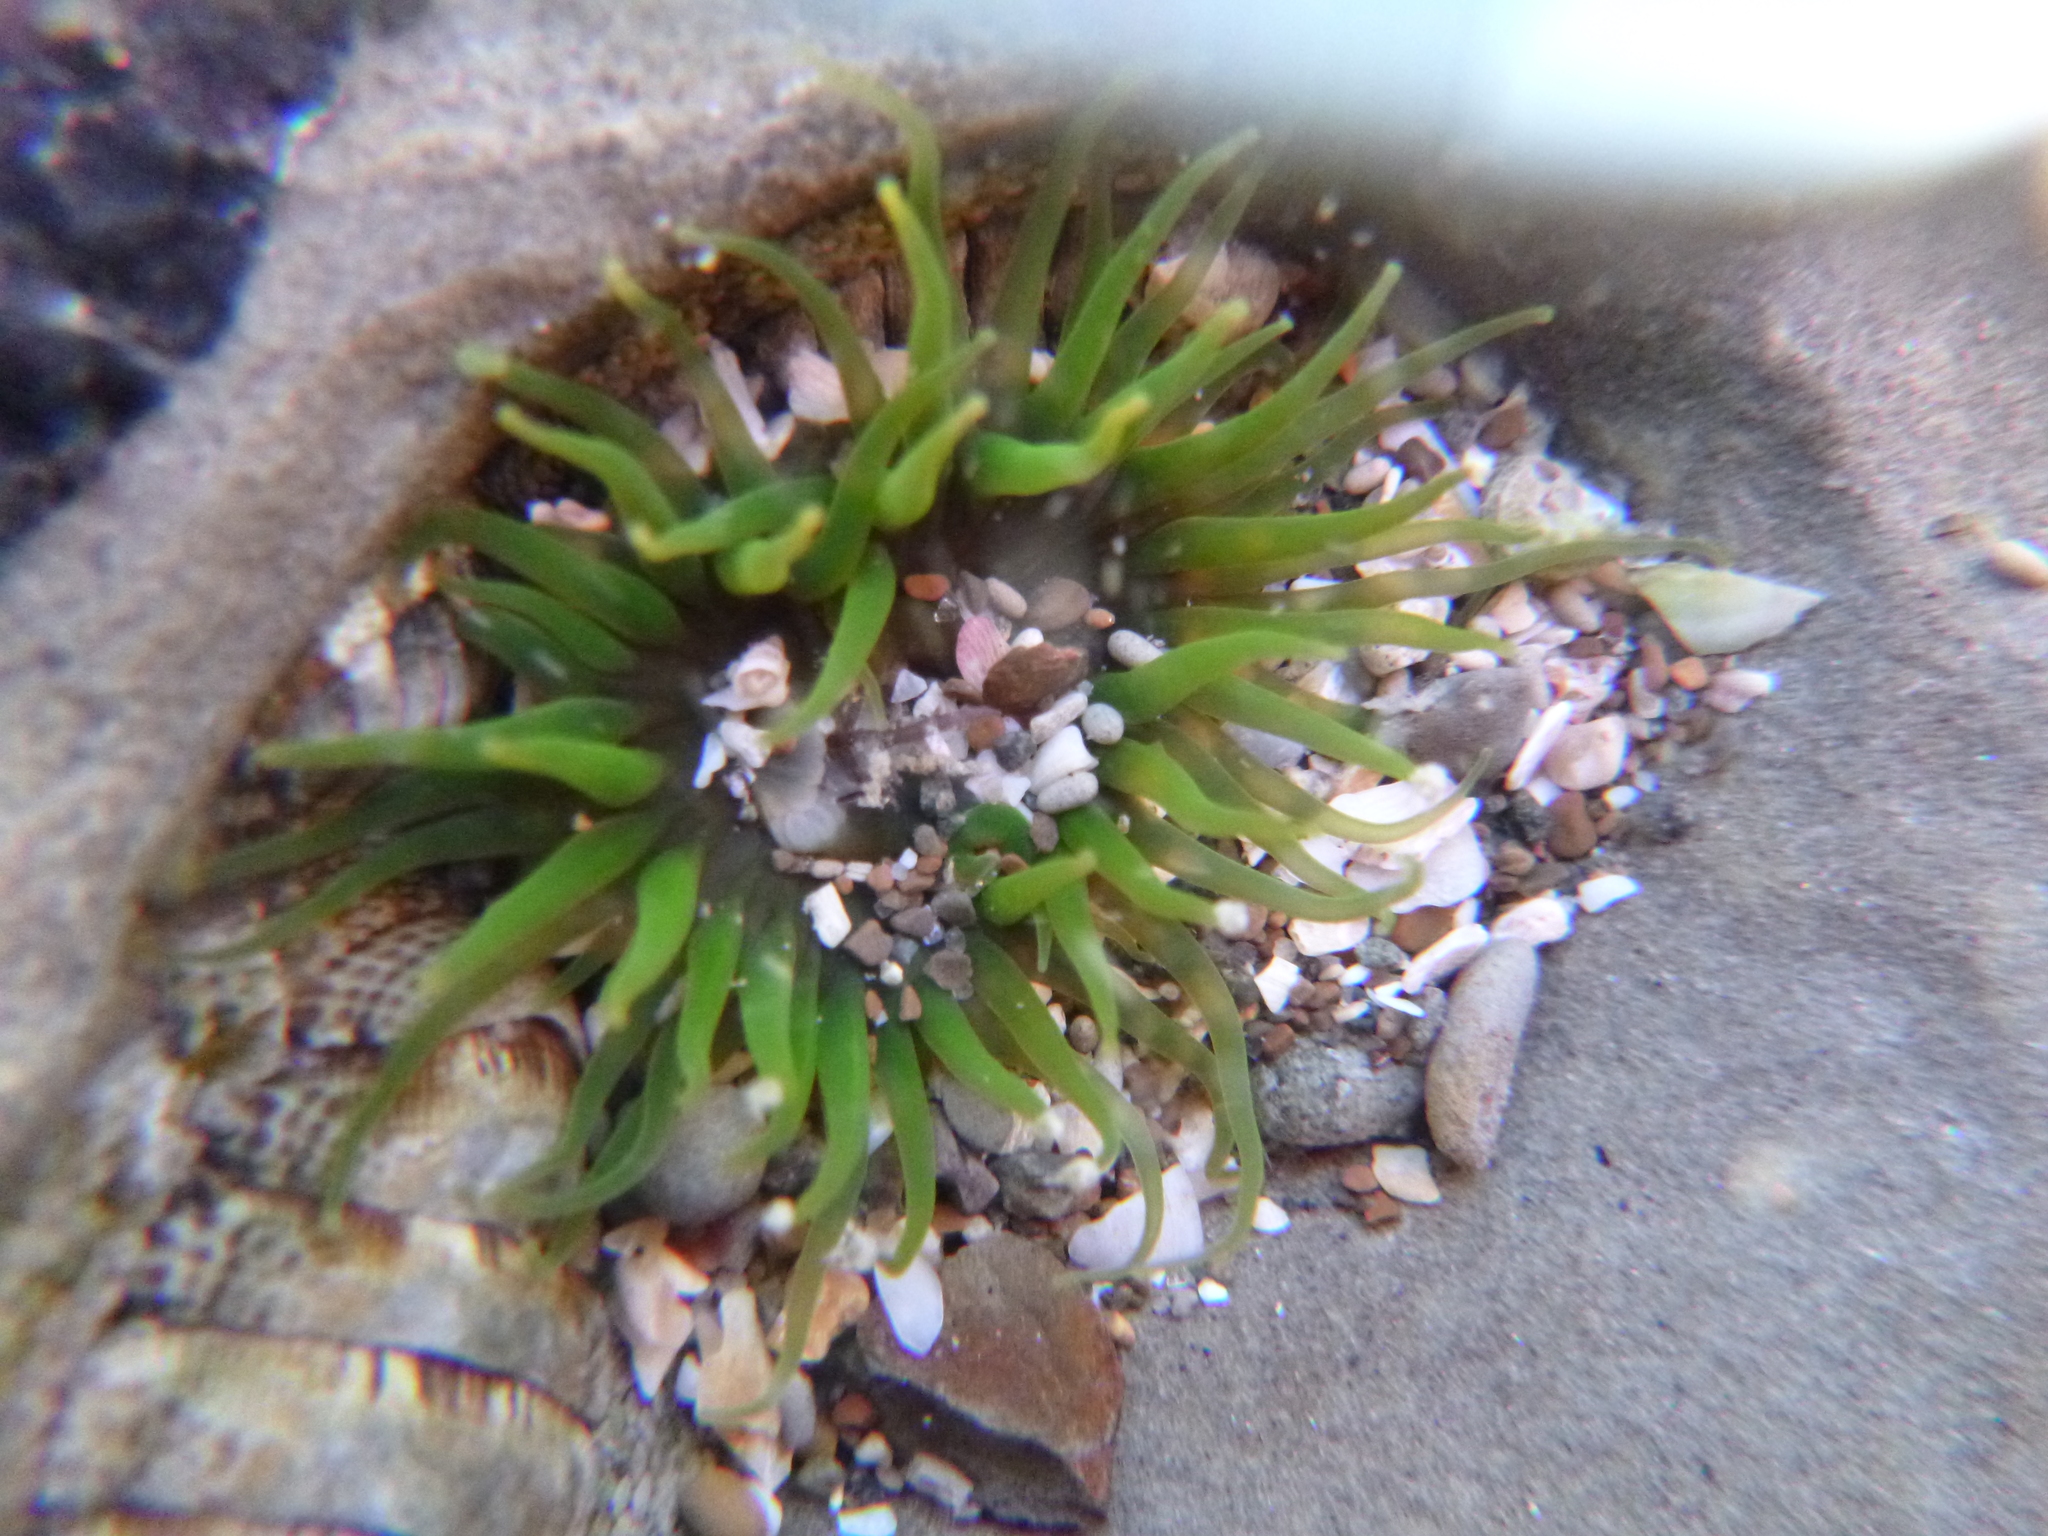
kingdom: Animalia
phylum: Cnidaria
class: Anthozoa
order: Actiniaria
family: Actiniidae
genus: Aulactinia
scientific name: Aulactinia veratra
